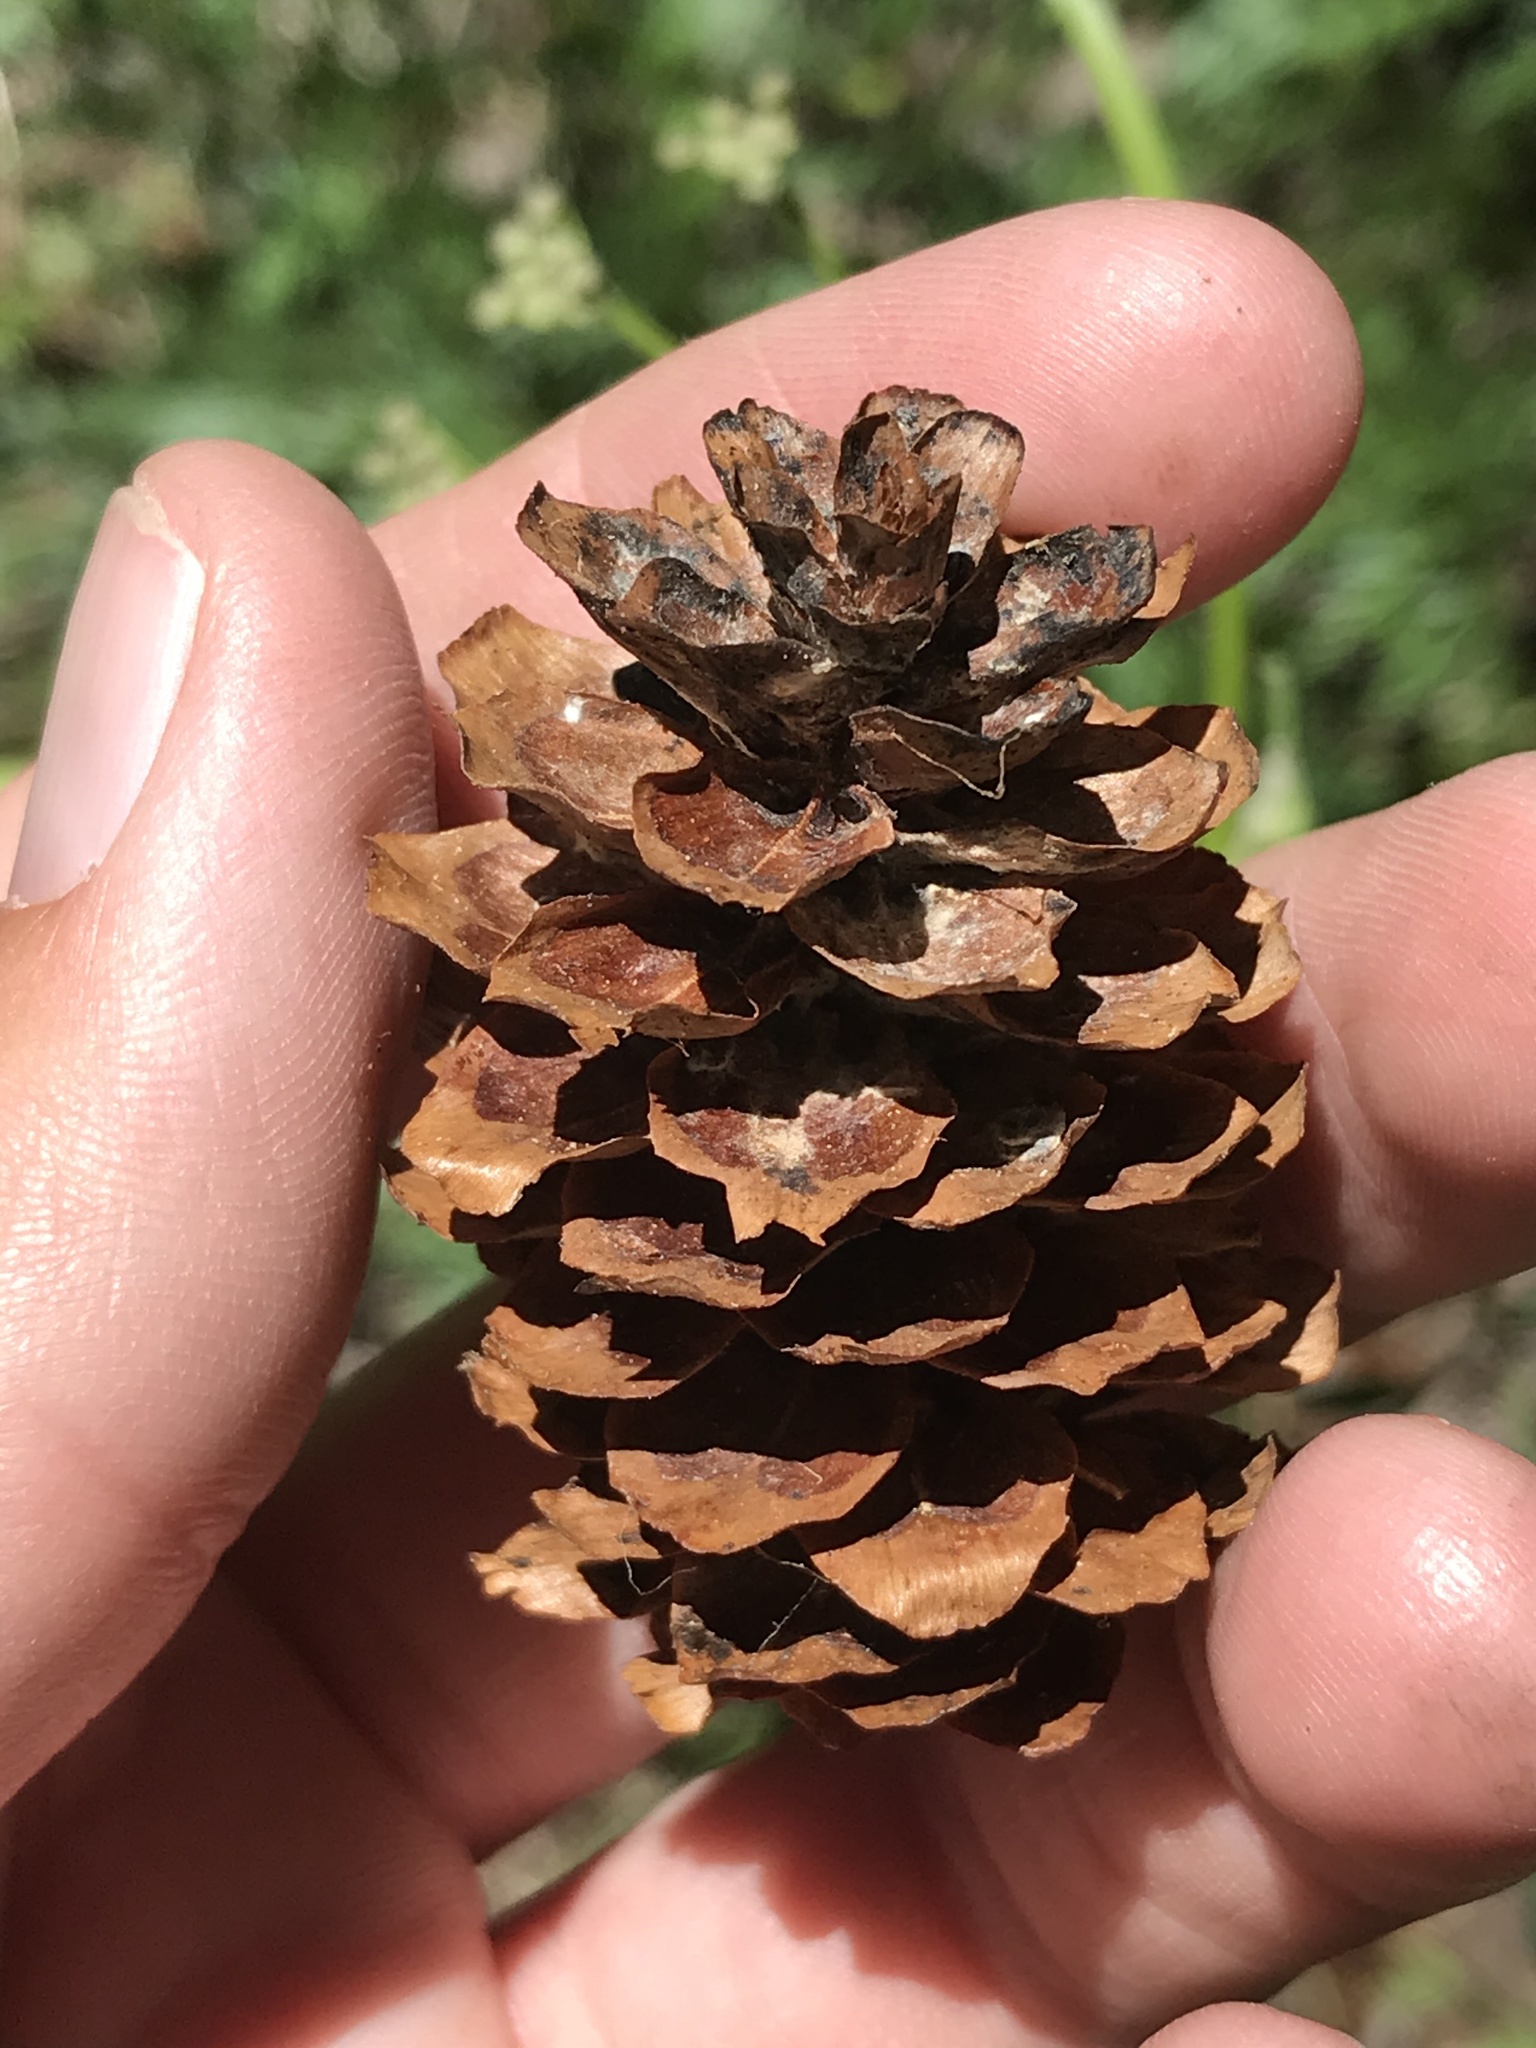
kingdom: Plantae
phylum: Tracheophyta
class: Pinopsida
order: Pinales
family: Pinaceae
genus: Picea
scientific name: Picea engelmannii
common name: Engelmann spruce
